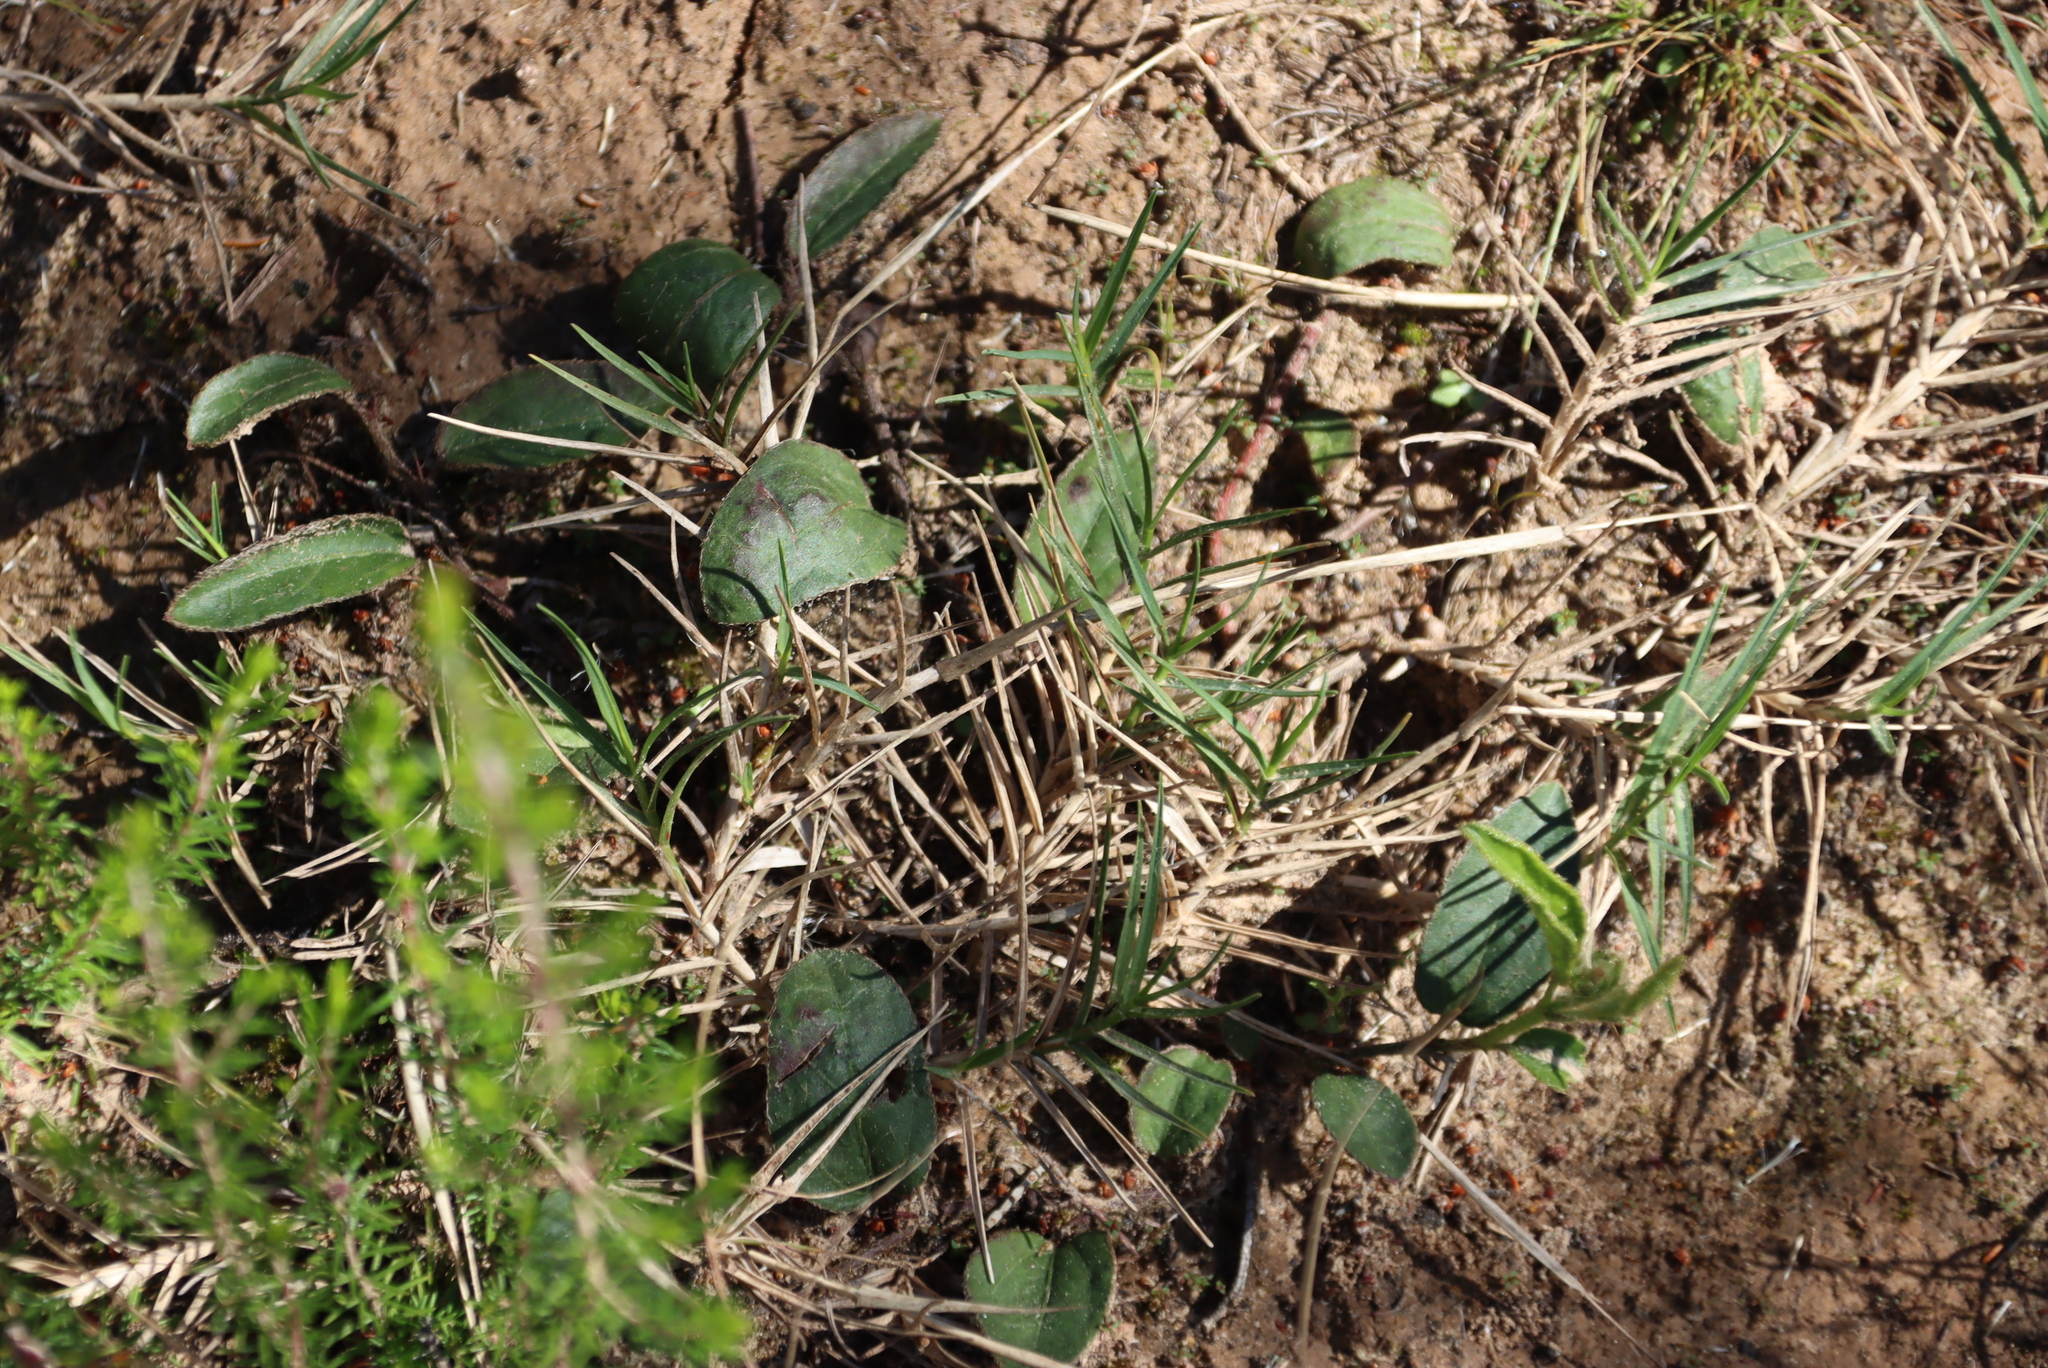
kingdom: Plantae
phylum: Tracheophyta
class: Liliopsida
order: Poales
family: Poaceae
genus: Cynodon
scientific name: Cynodon dactylon
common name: Bermuda grass
